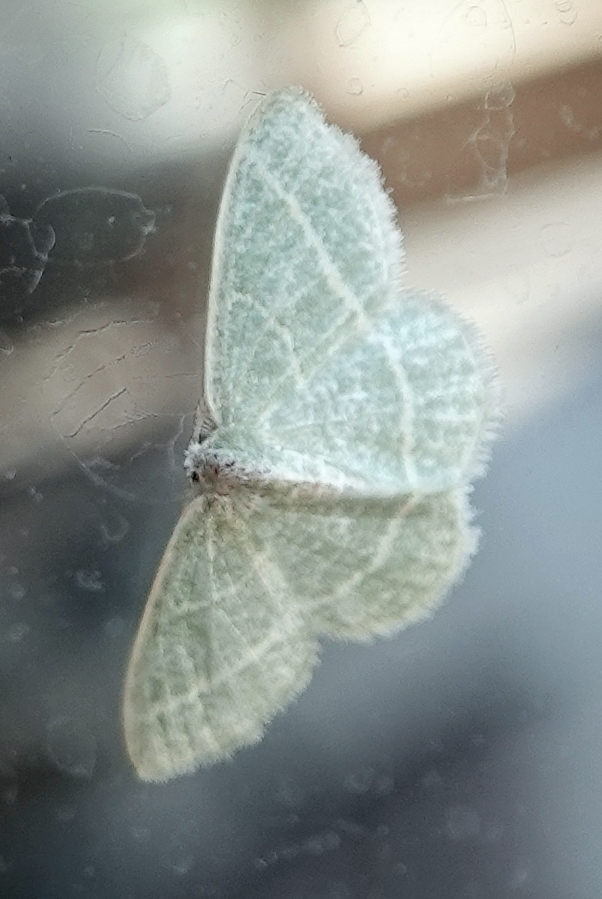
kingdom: Animalia
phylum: Arthropoda
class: Insecta
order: Lepidoptera
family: Geometridae
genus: Chlorochlamys
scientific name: Chlorochlamys chloroleucaria
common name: Blackberry looper
